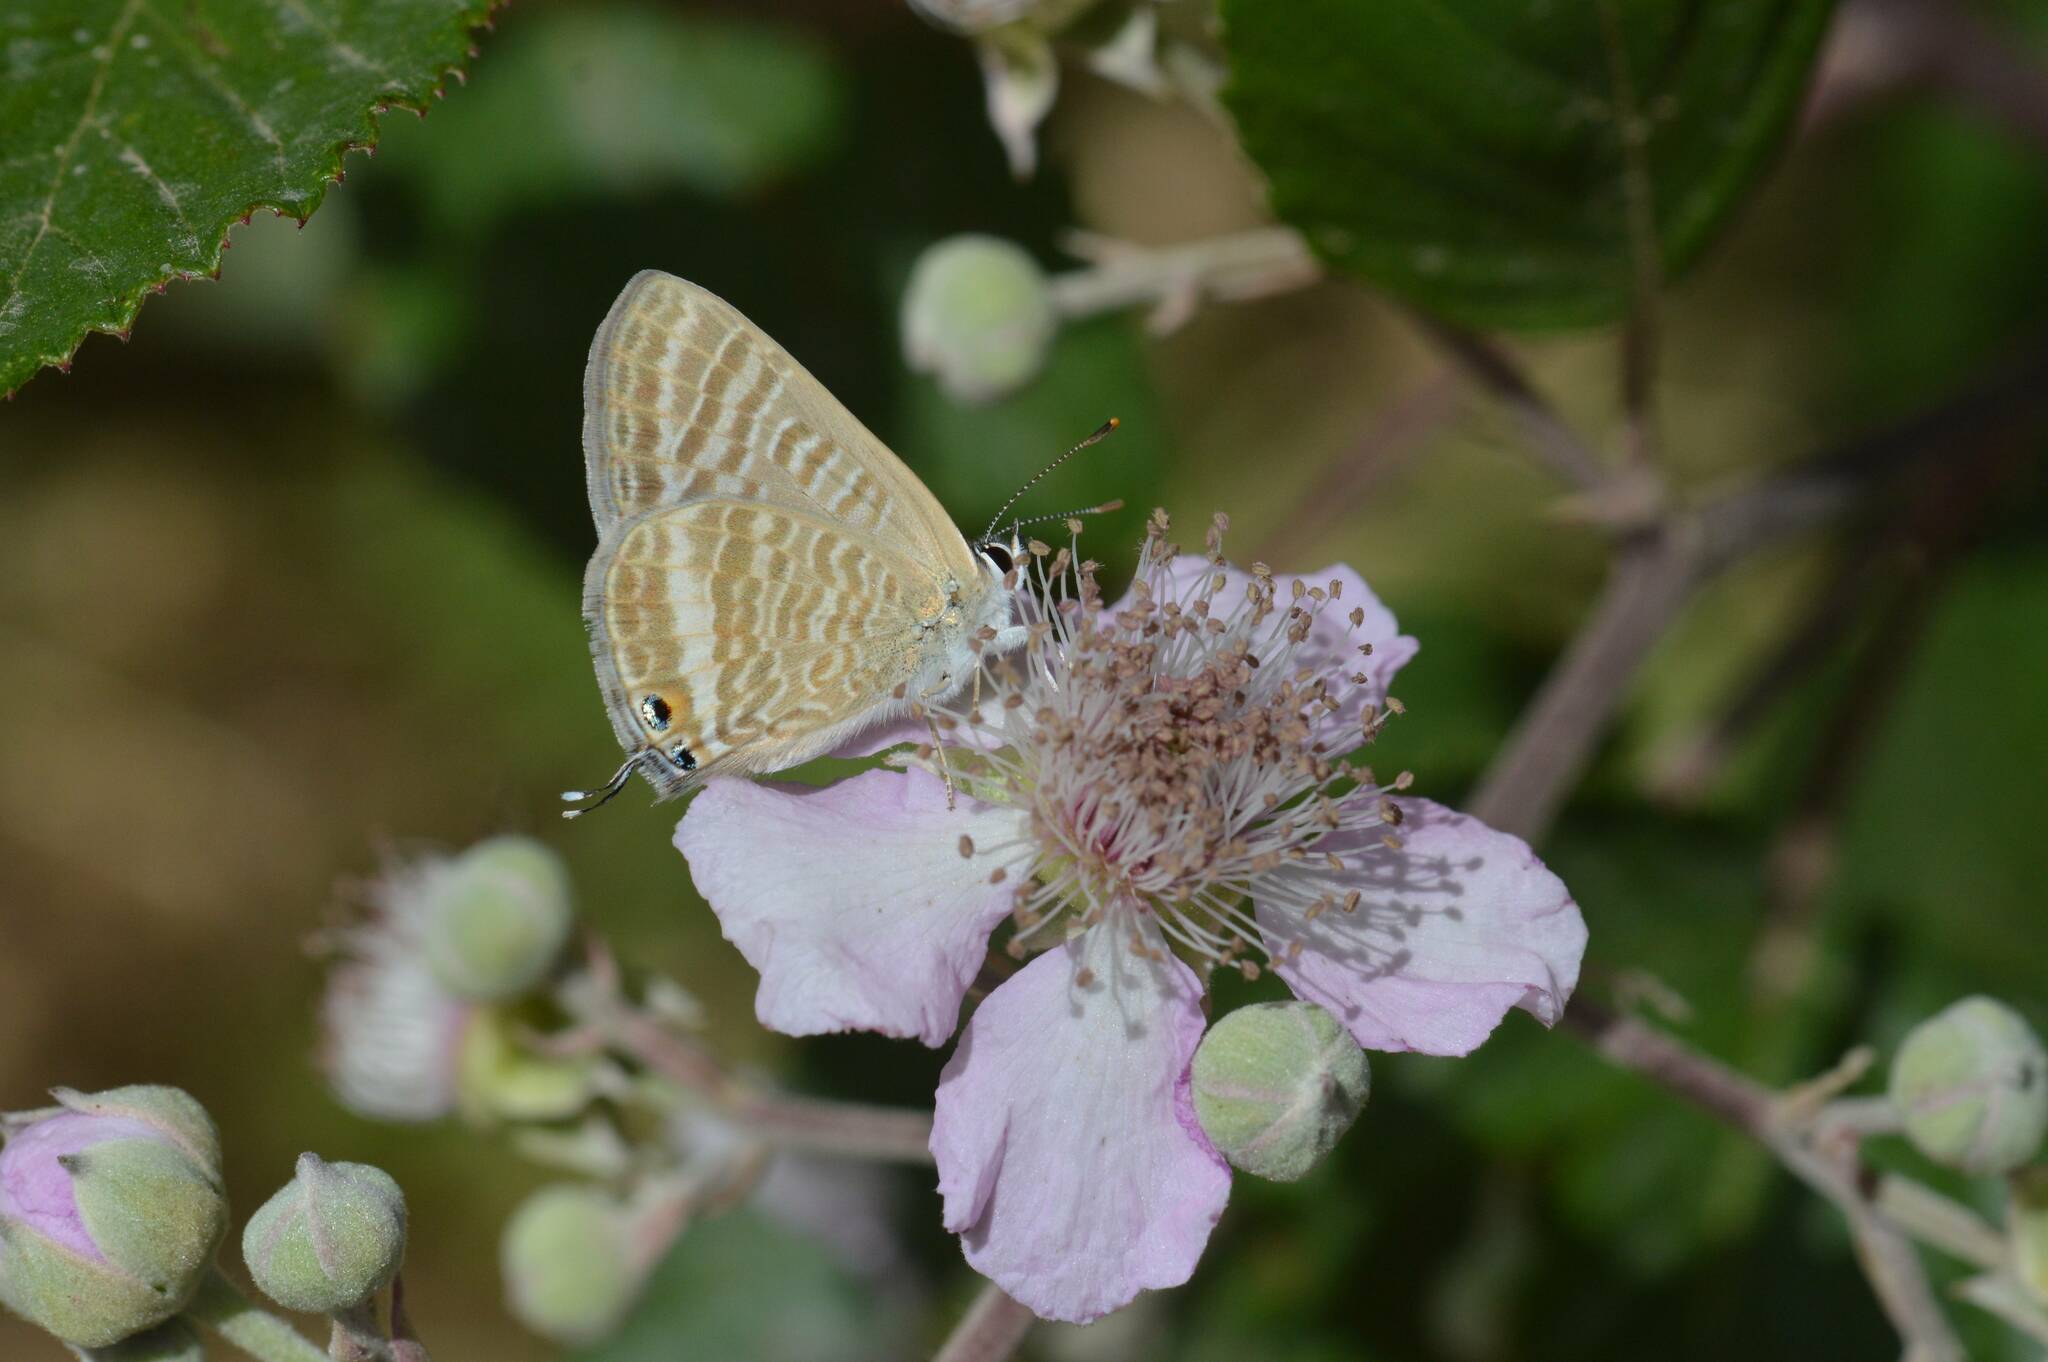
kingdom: Animalia
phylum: Arthropoda
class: Insecta
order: Lepidoptera
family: Lycaenidae
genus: Lampides
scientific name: Lampides boeticus
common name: Long-tailed blue
